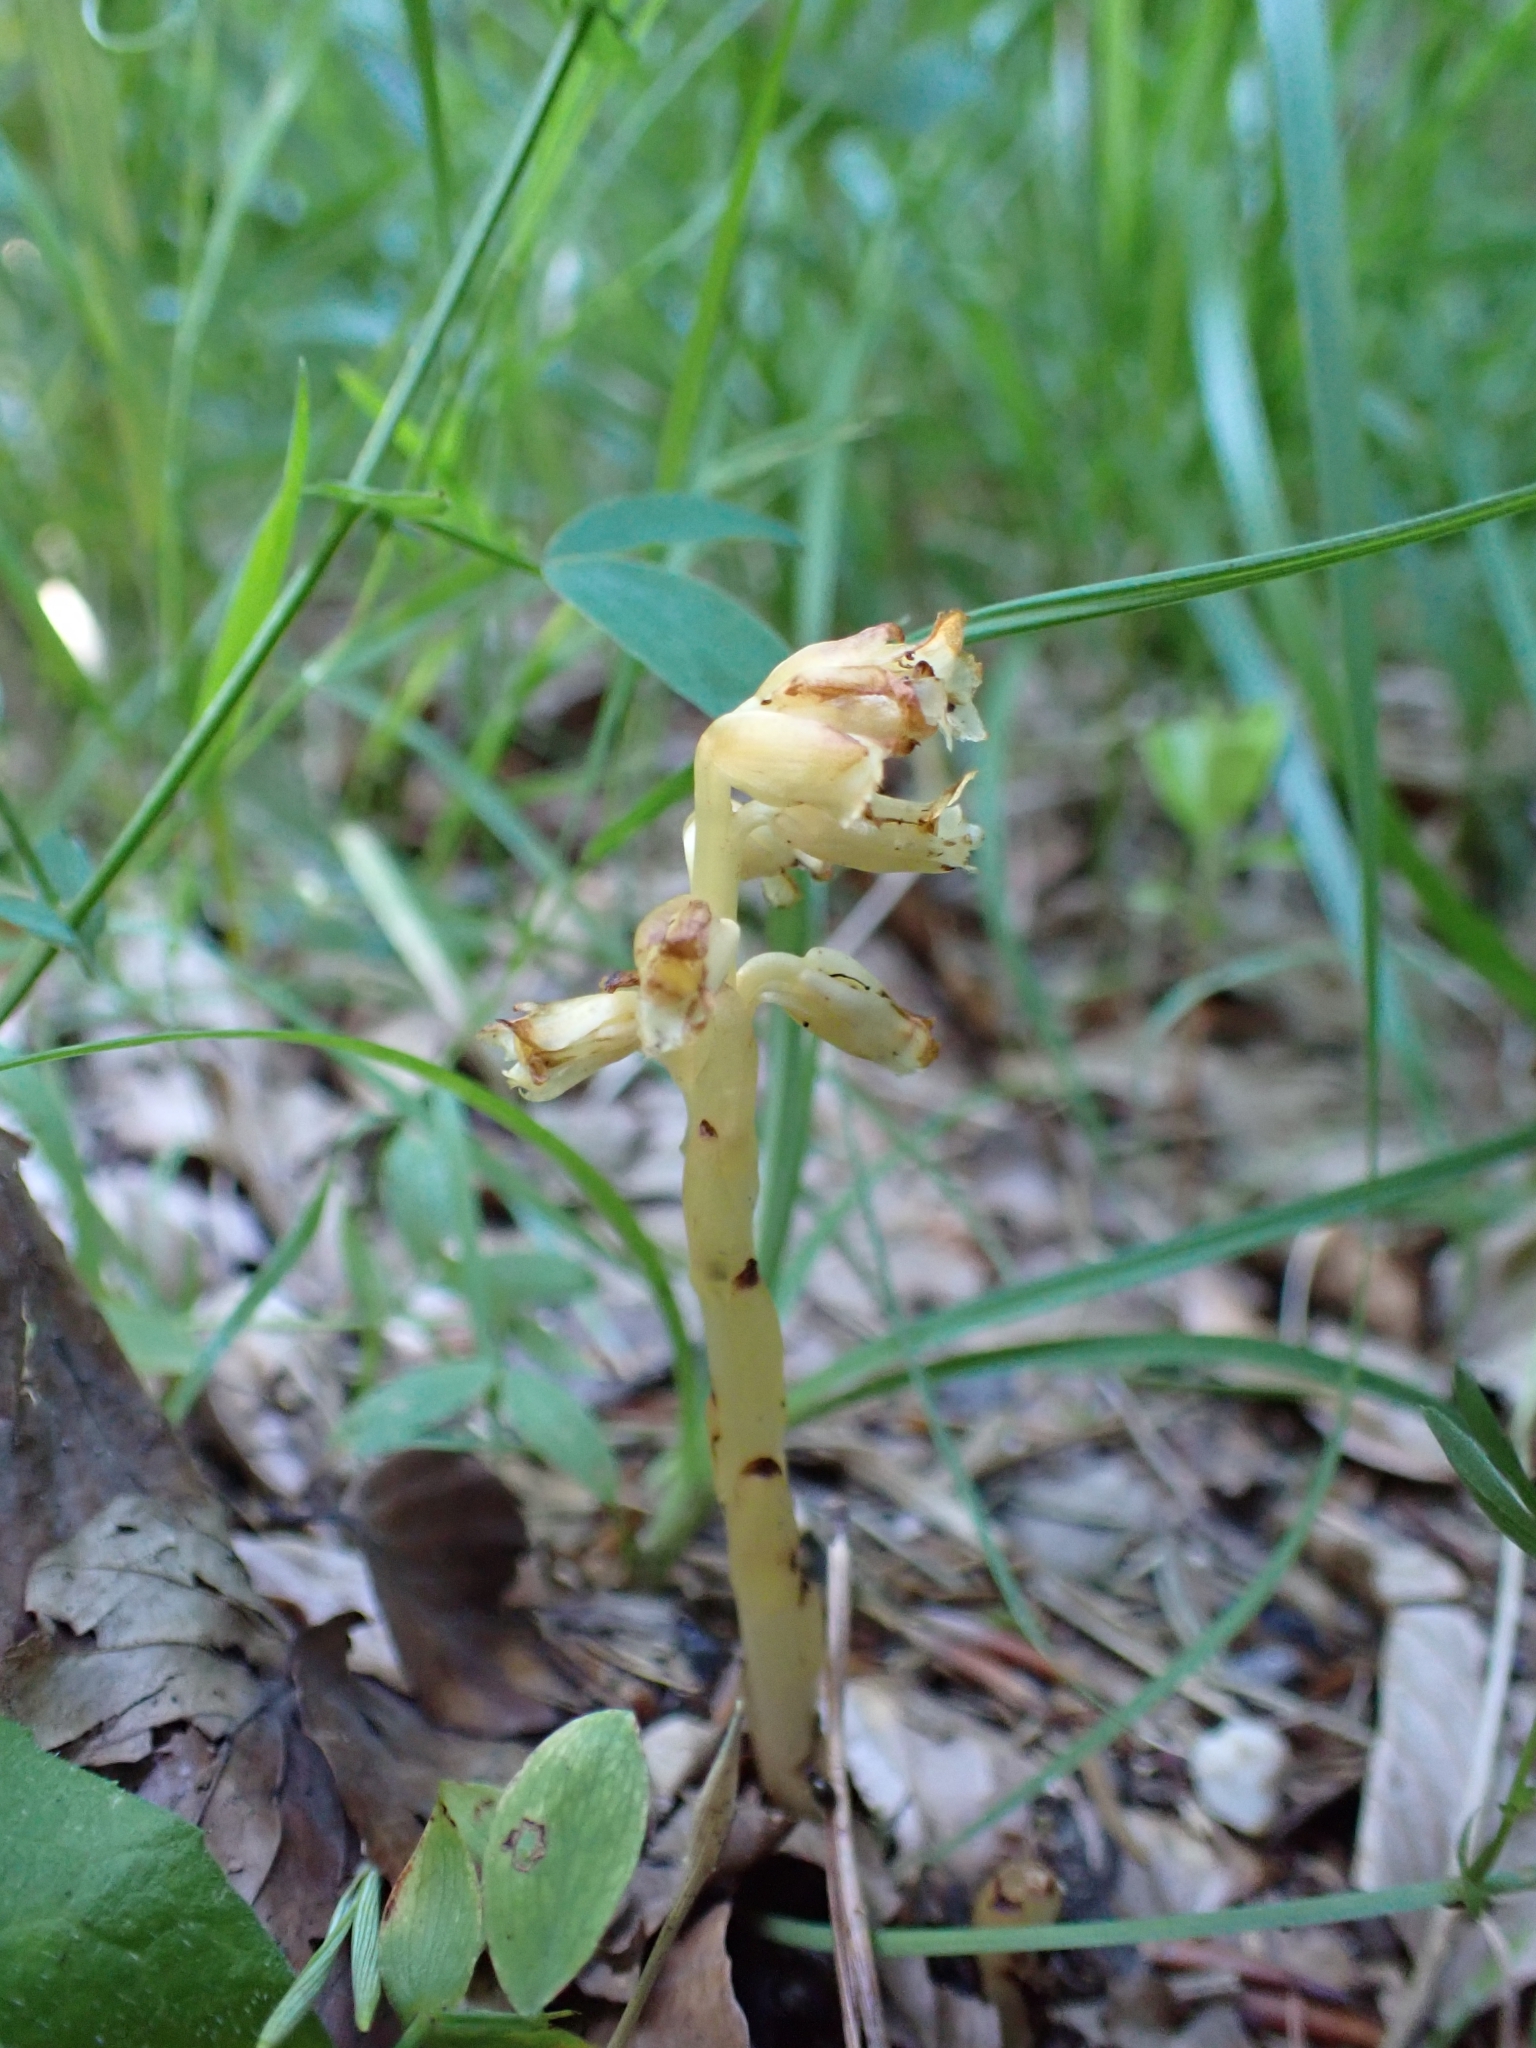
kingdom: Plantae
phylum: Tracheophyta
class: Magnoliopsida
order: Ericales
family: Ericaceae
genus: Hypopitys
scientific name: Hypopitys monotropa
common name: Yellow bird's-nest
